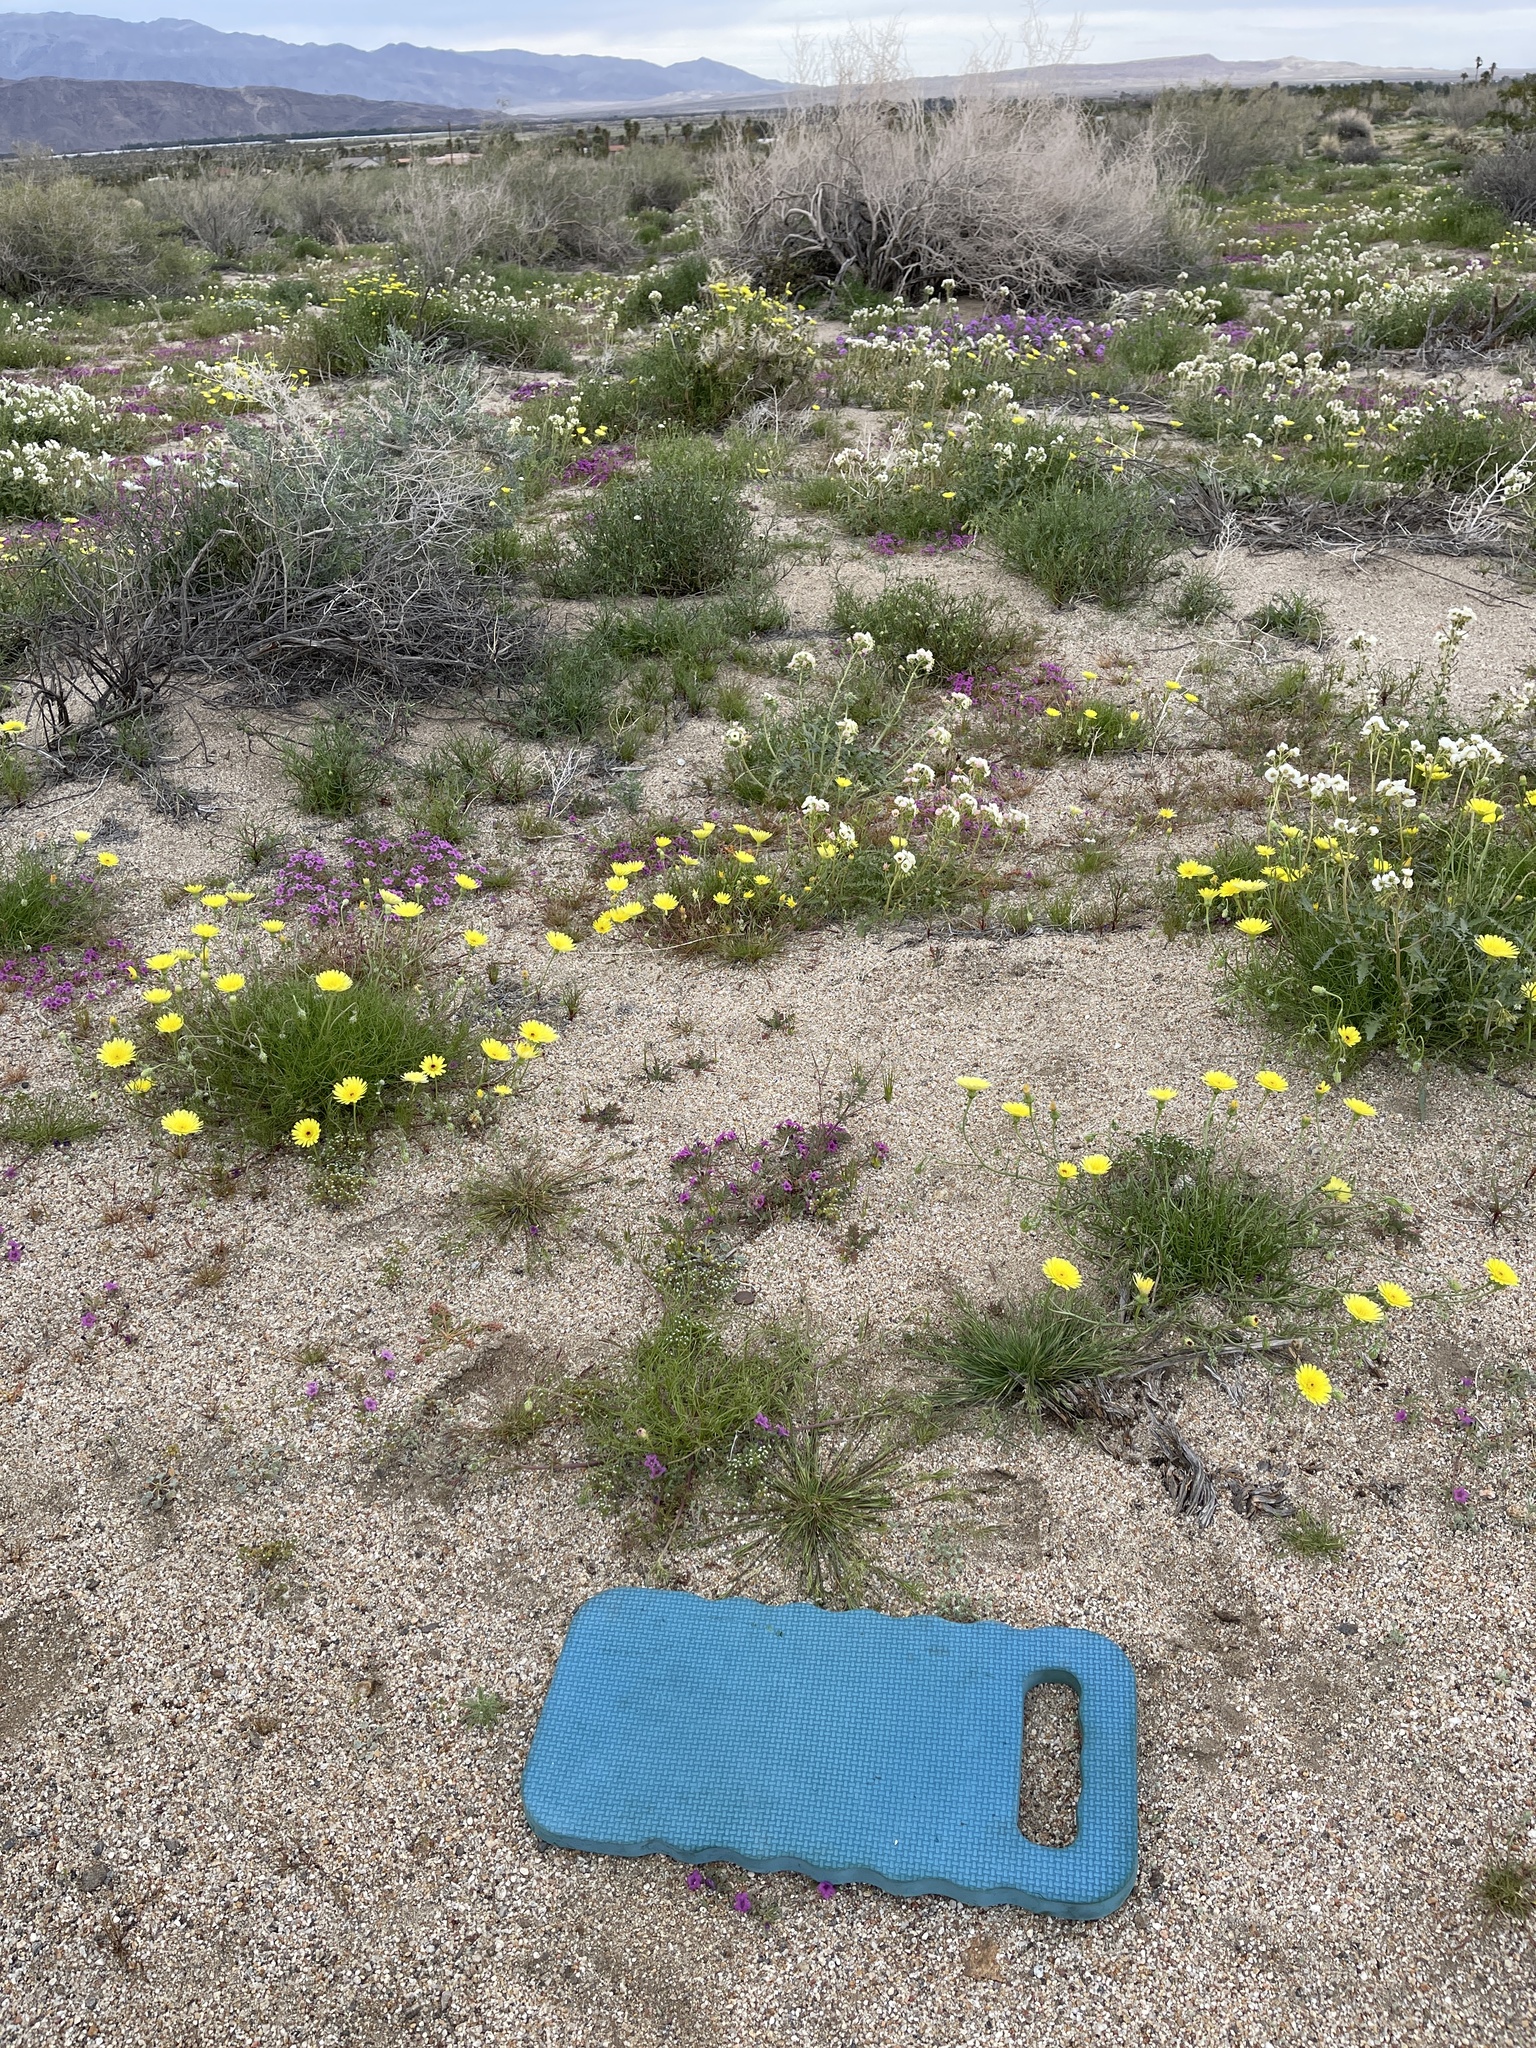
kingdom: Plantae
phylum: Tracheophyta
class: Magnoliopsida
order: Boraginales
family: Boraginaceae
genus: Eremocarya
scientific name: Eremocarya micrantha
